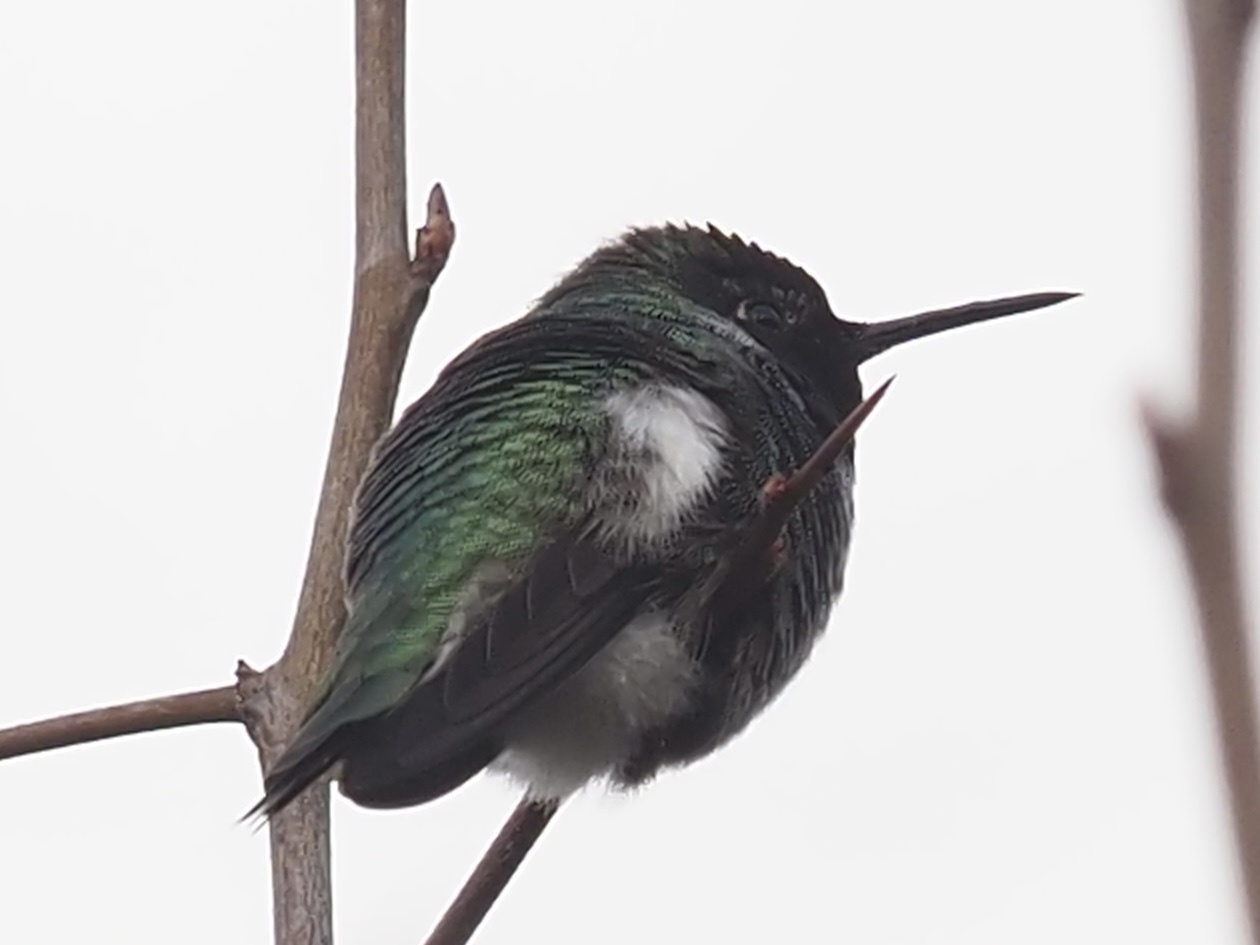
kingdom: Animalia
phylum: Chordata
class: Aves
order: Apodiformes
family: Trochilidae
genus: Calypte
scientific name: Calypte anna
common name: Anna's hummingbird
